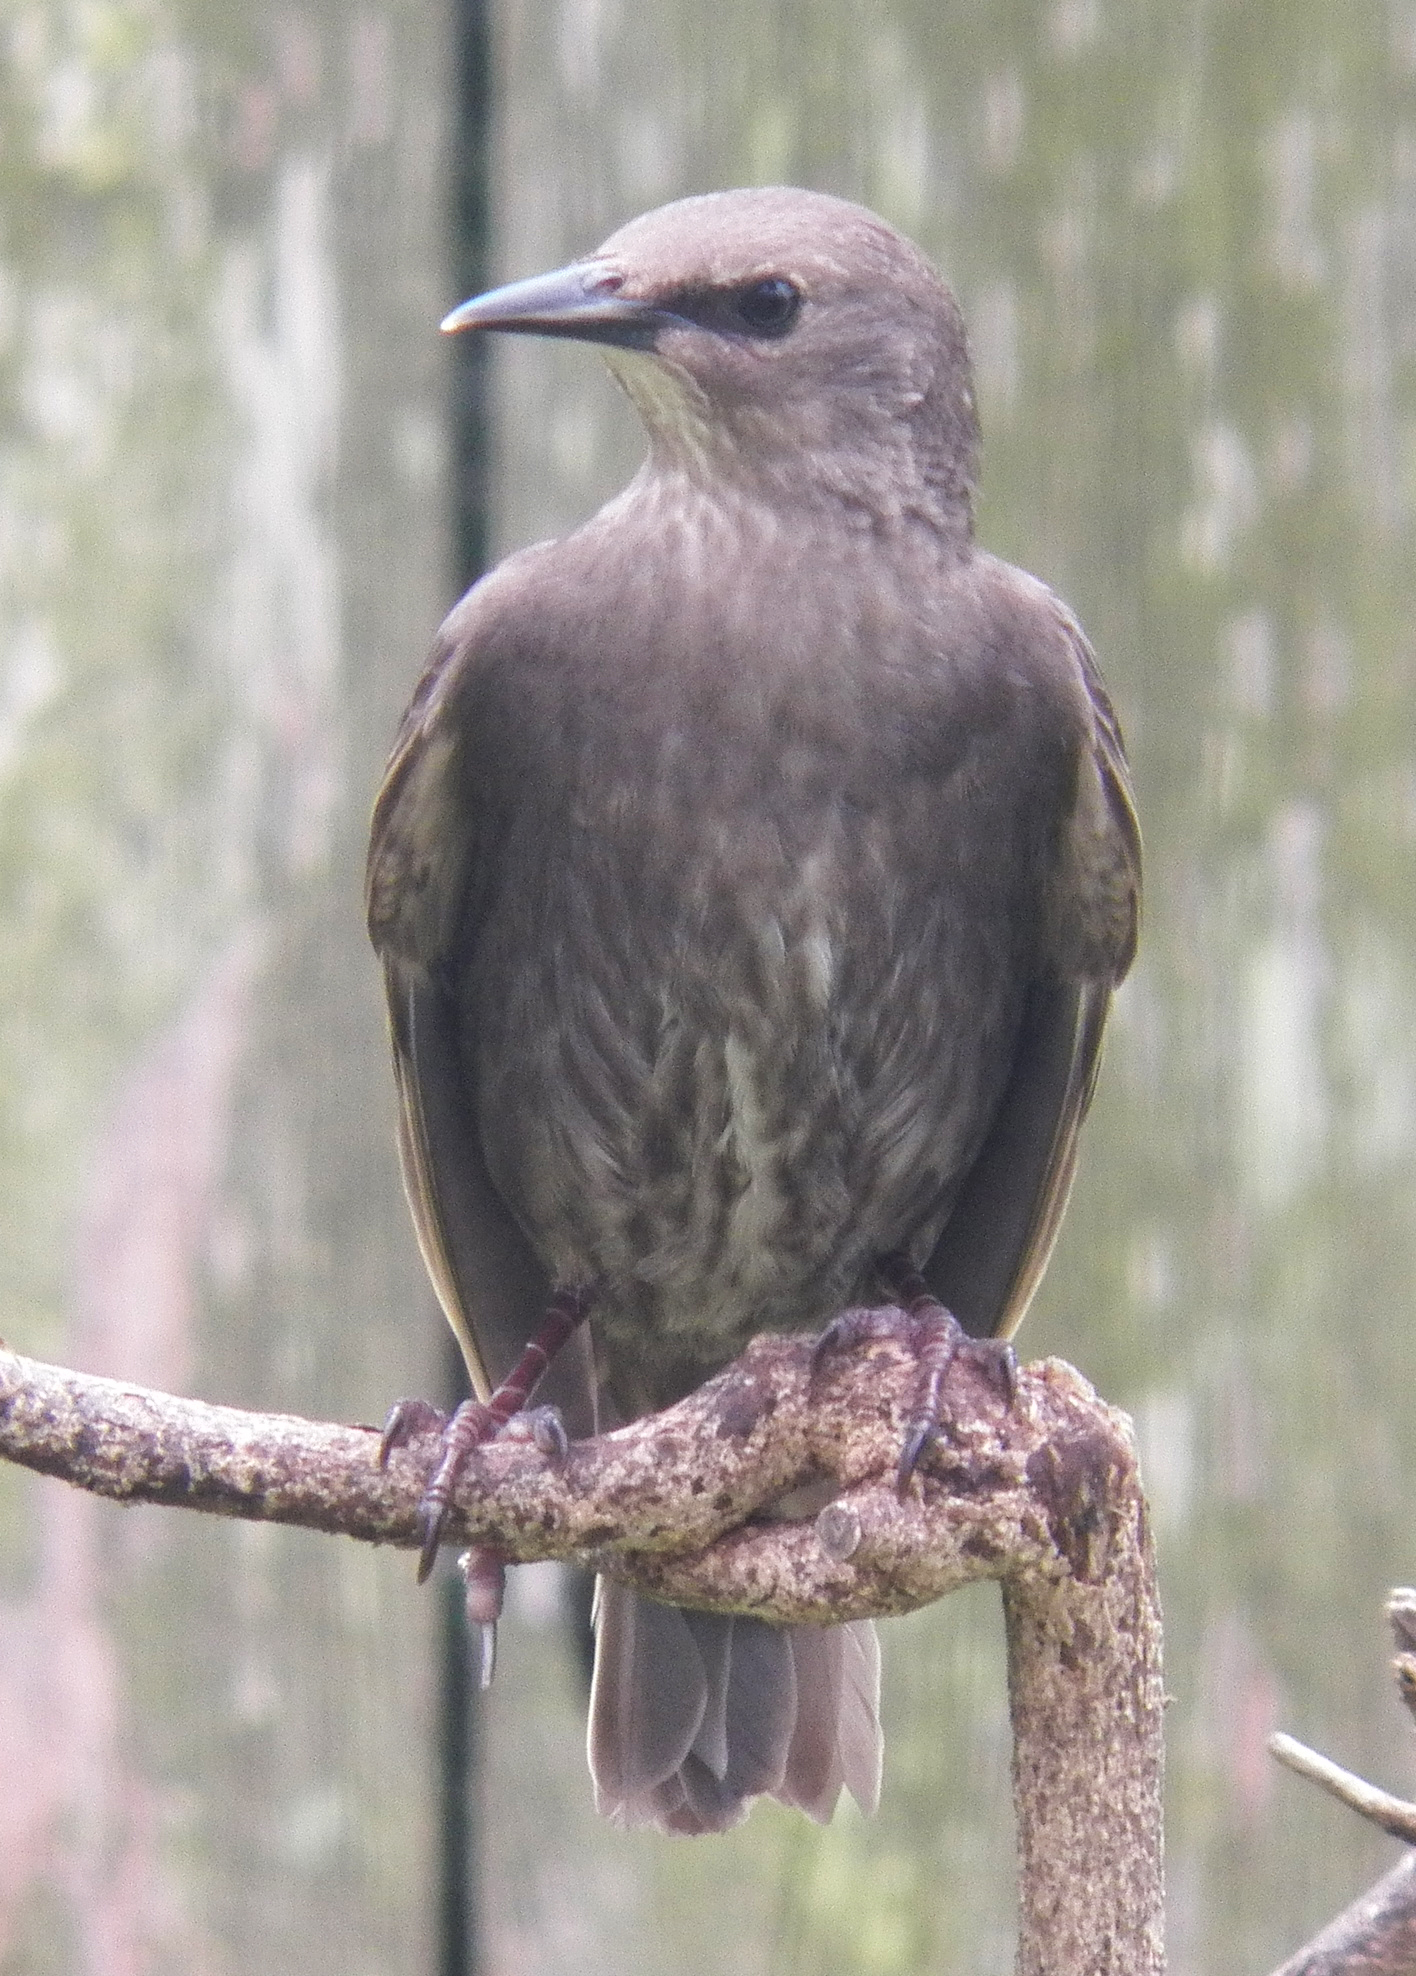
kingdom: Animalia
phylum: Chordata
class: Aves
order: Passeriformes
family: Sturnidae
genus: Sturnus
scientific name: Sturnus vulgaris
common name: Common starling
